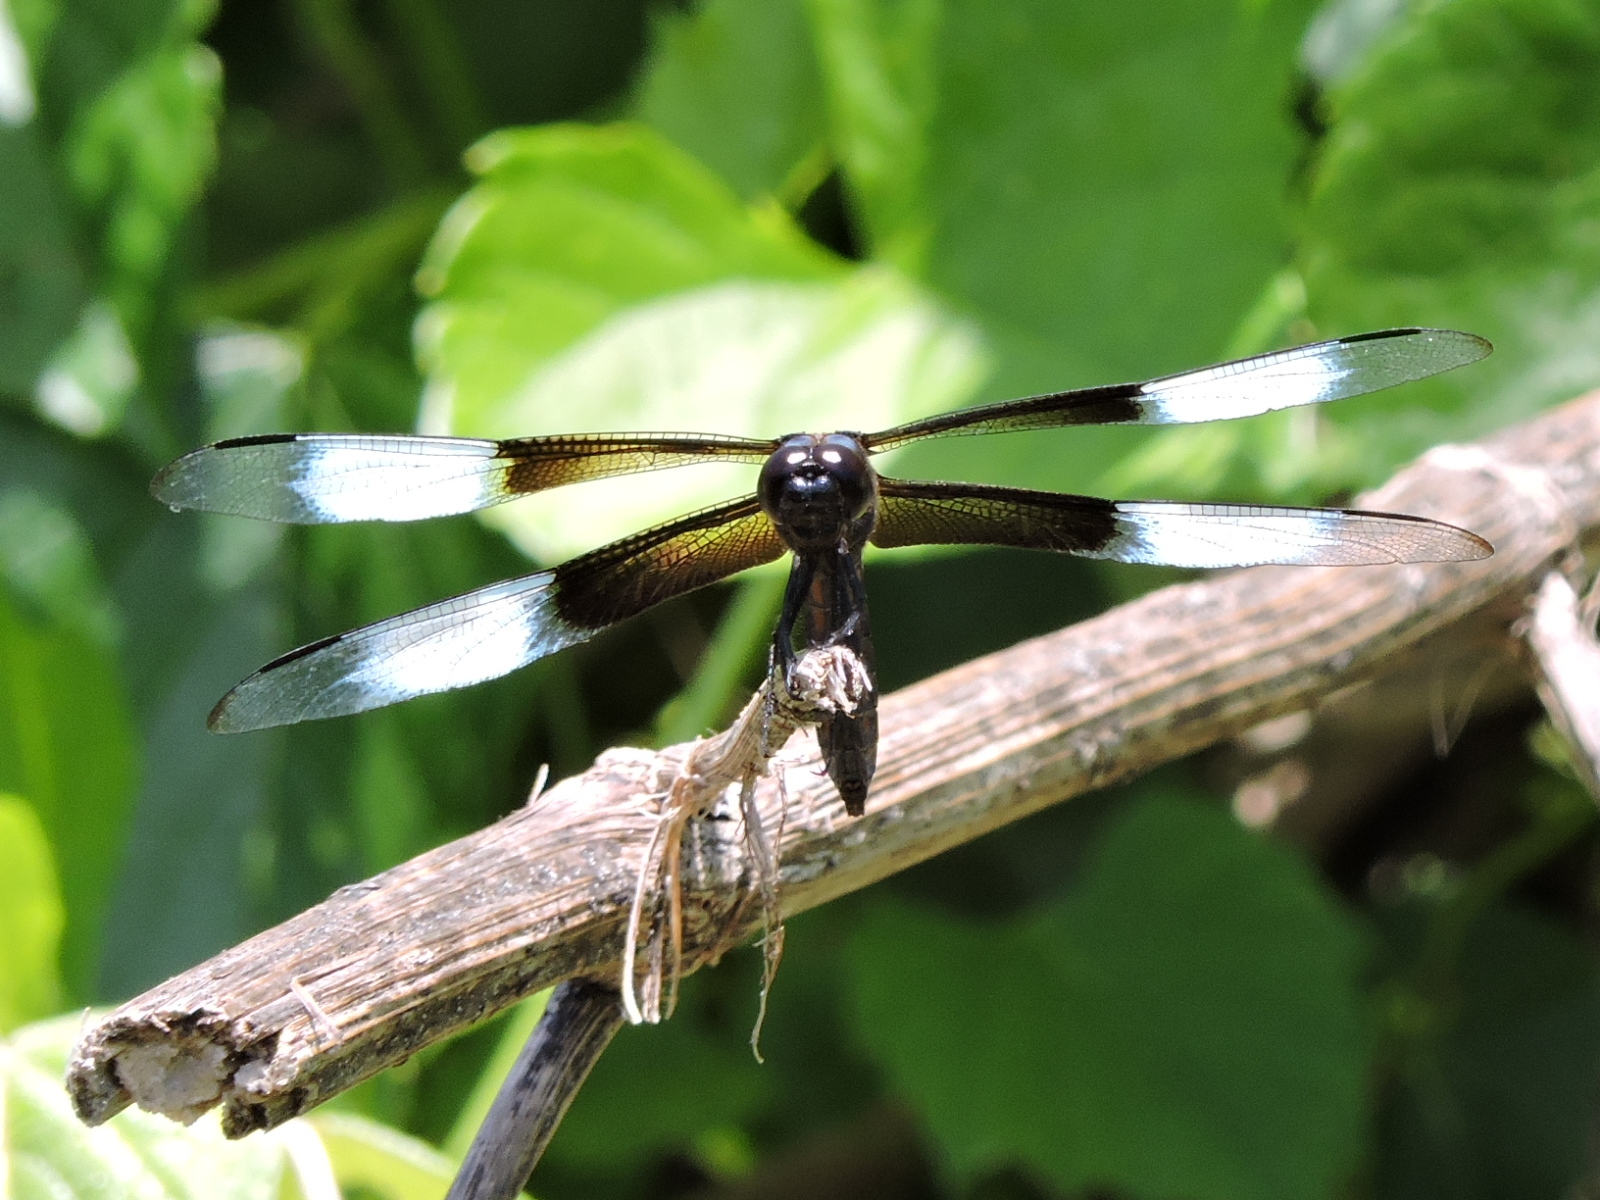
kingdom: Animalia
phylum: Arthropoda
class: Insecta
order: Odonata
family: Libellulidae
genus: Libellula
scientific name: Libellula luctuosa
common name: Widow skimmer
